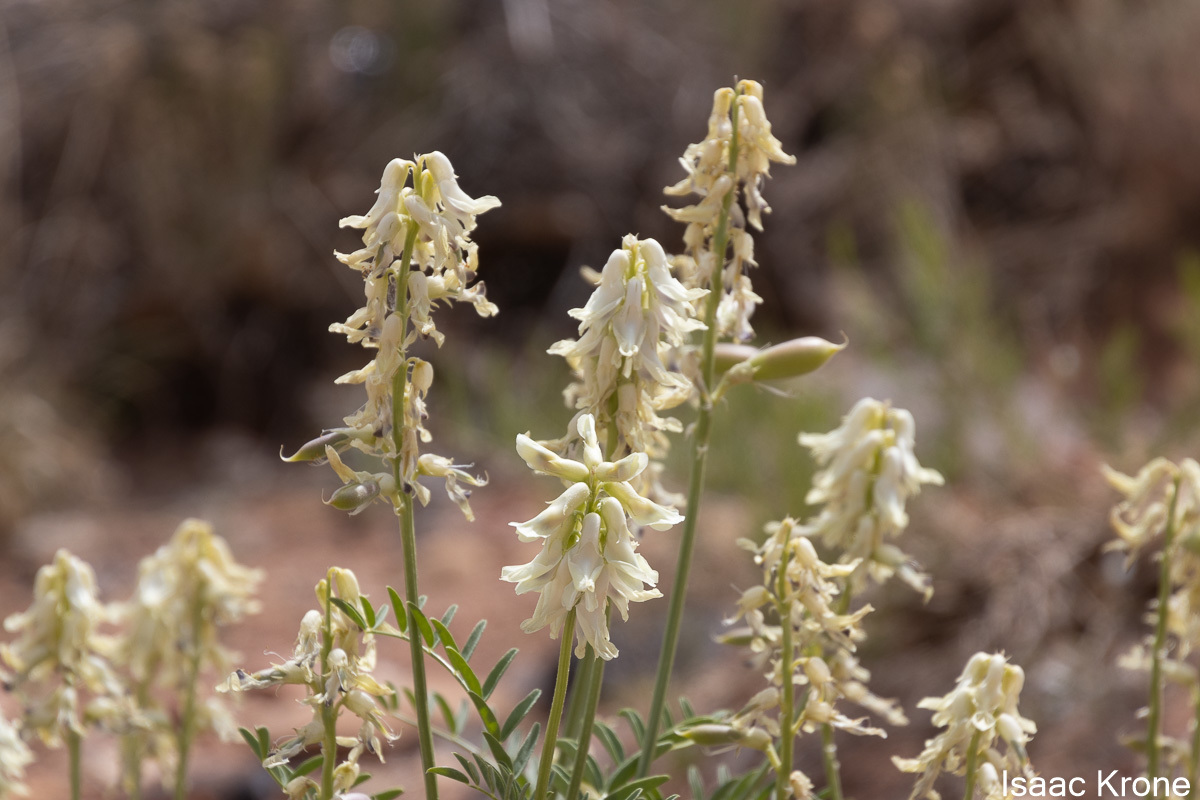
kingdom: Plantae
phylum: Tracheophyta
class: Magnoliopsida
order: Fabales
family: Fabaceae
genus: Astragalus
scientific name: Astragalus praelongus
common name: Stinking milk-vetch
